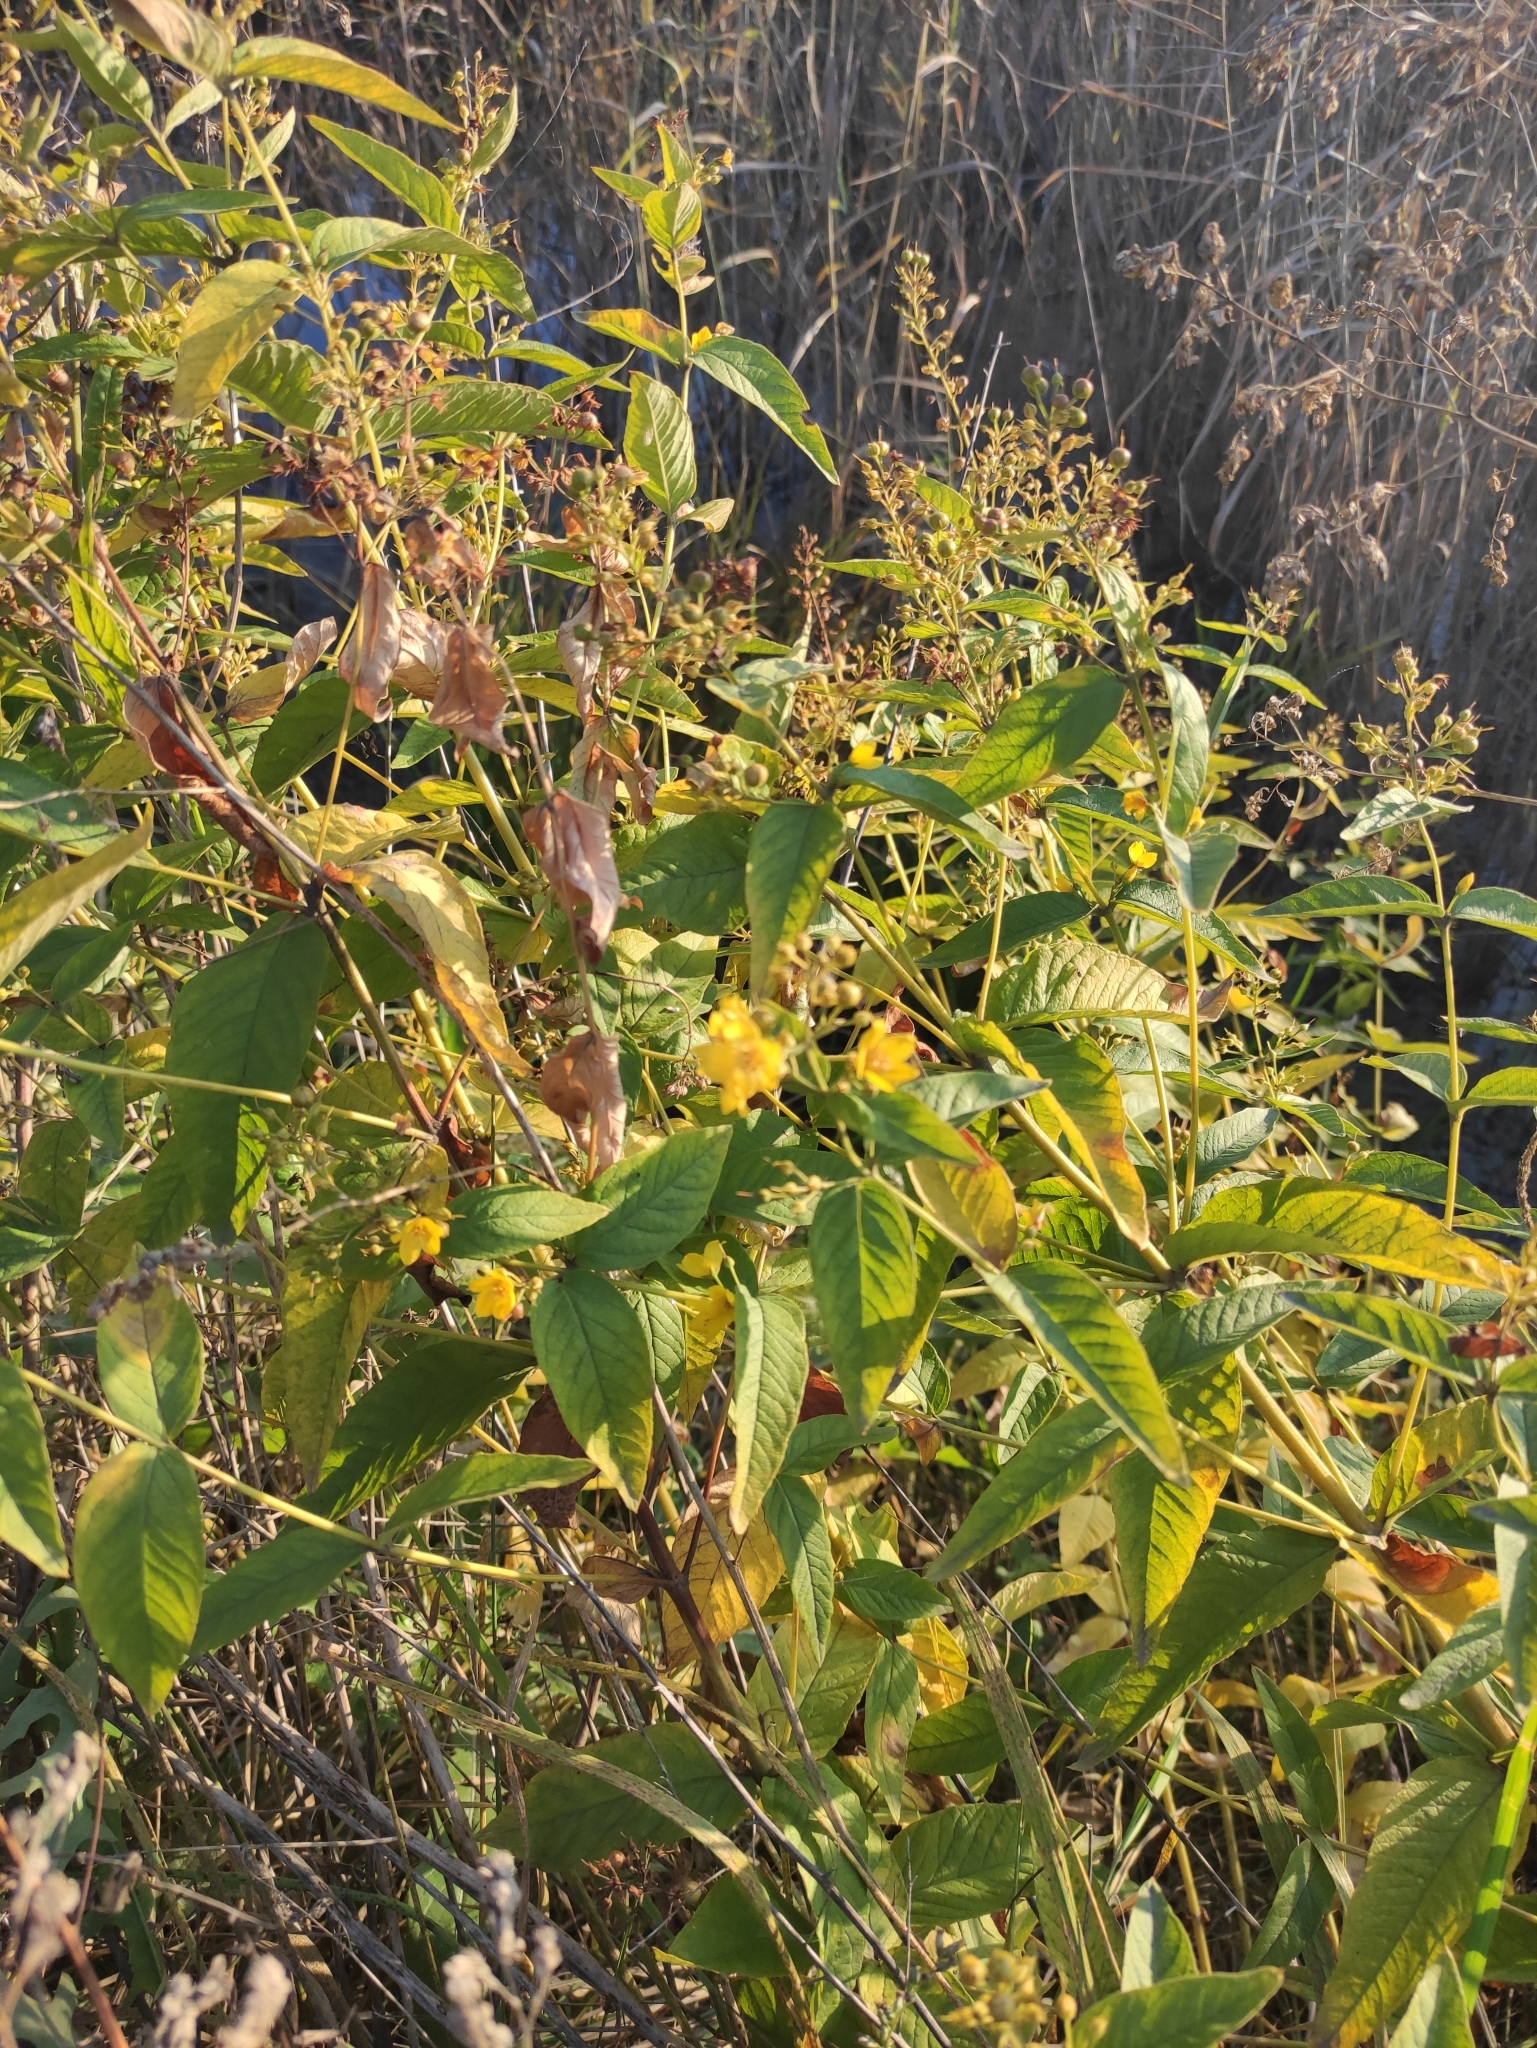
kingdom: Plantae
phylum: Tracheophyta
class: Magnoliopsida
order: Ericales
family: Primulaceae
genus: Lysimachia
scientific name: Lysimachia davurica
